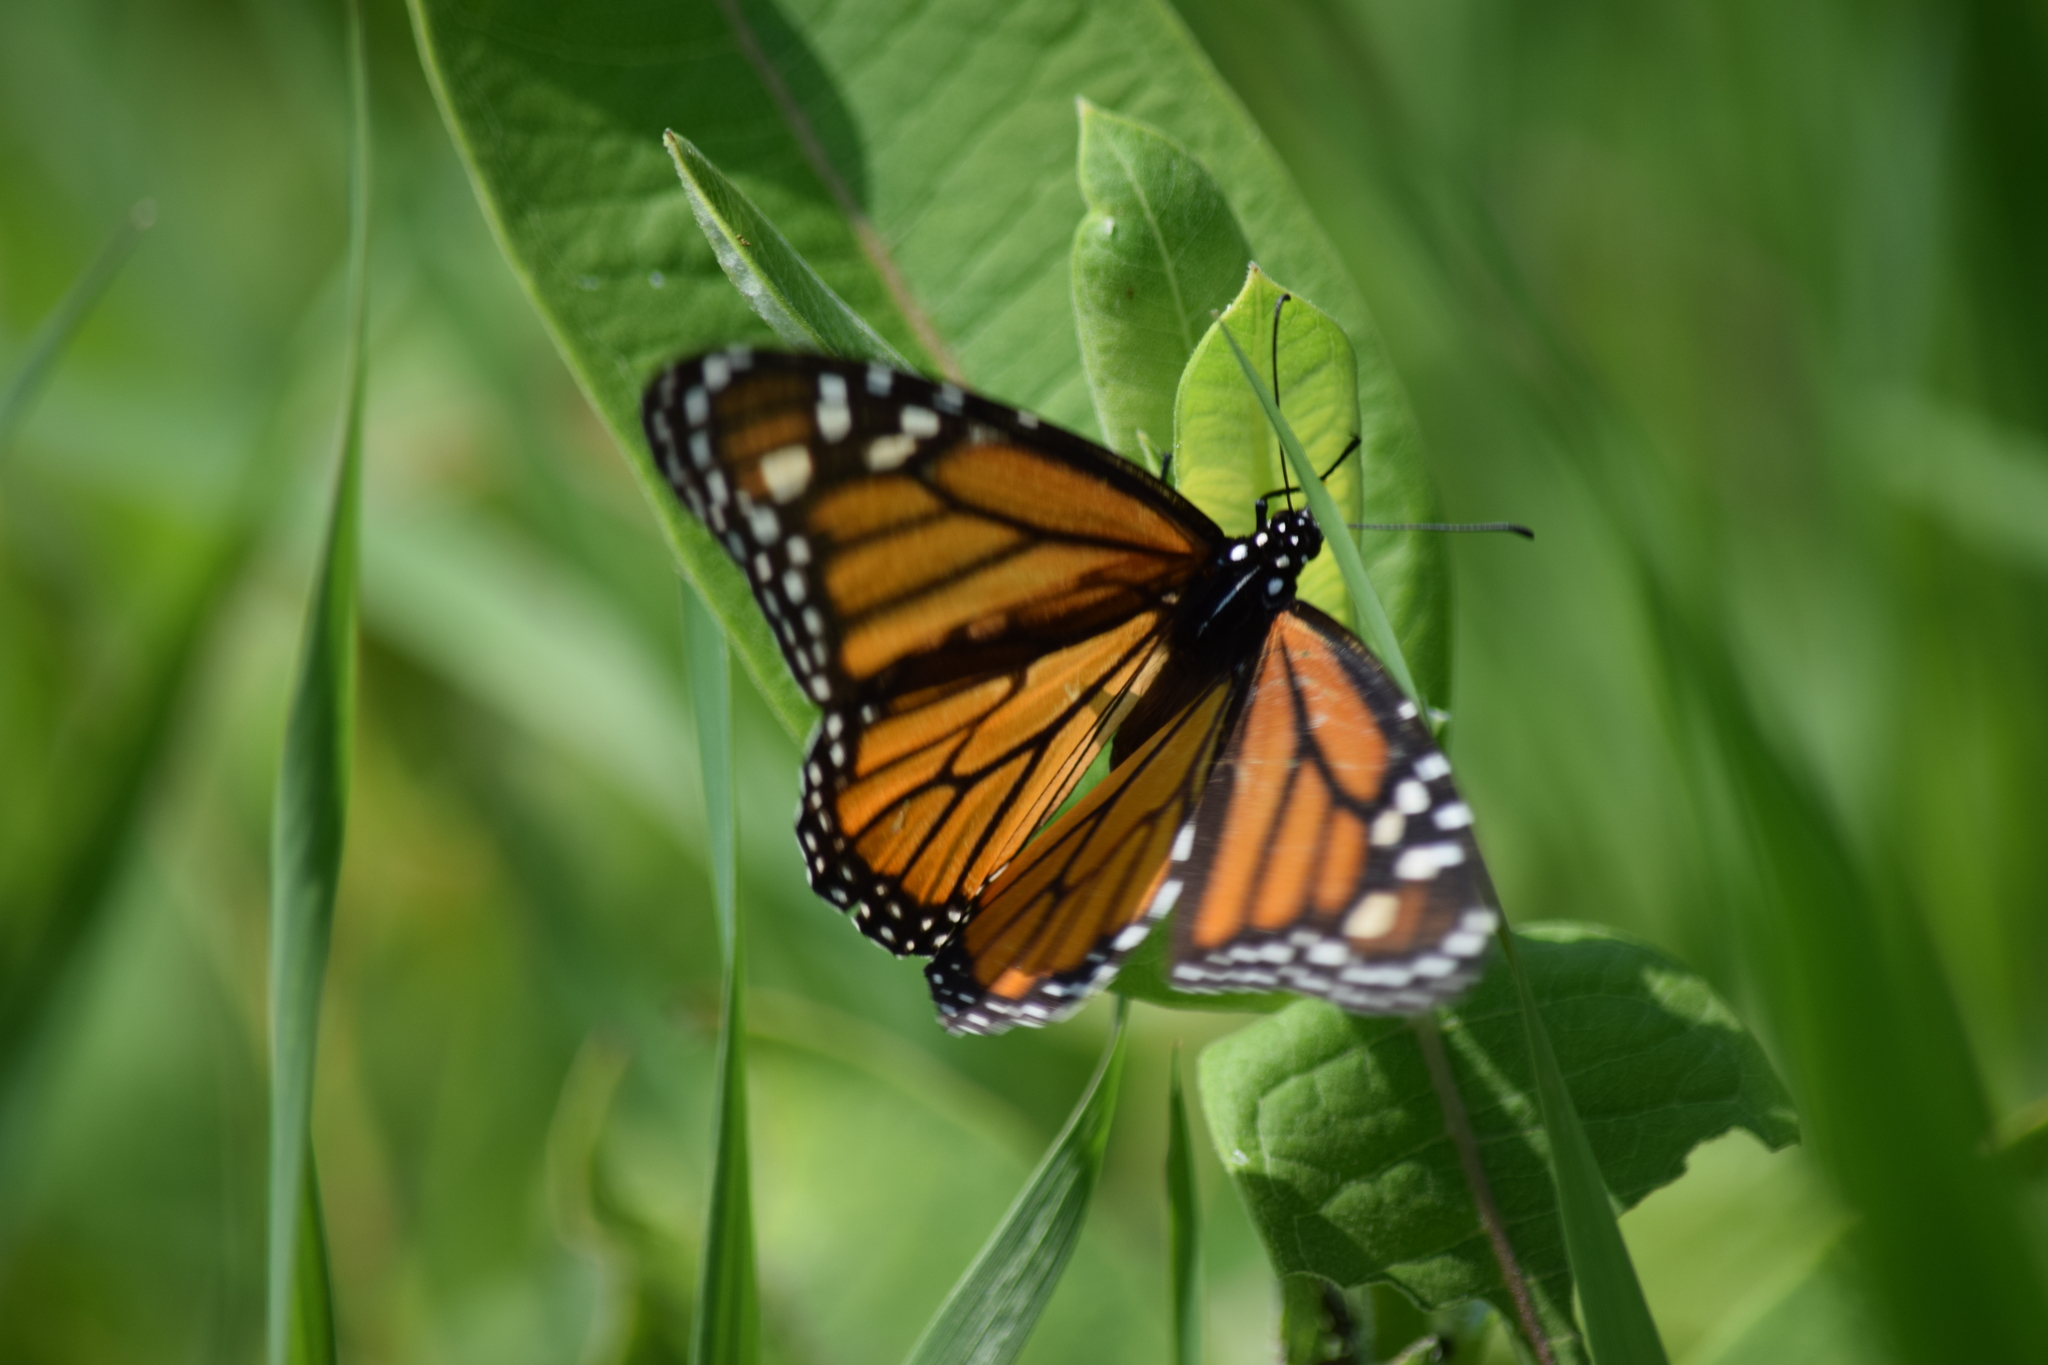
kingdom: Animalia
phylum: Arthropoda
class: Insecta
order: Lepidoptera
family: Nymphalidae
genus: Danaus
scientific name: Danaus plexippus
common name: Monarch
